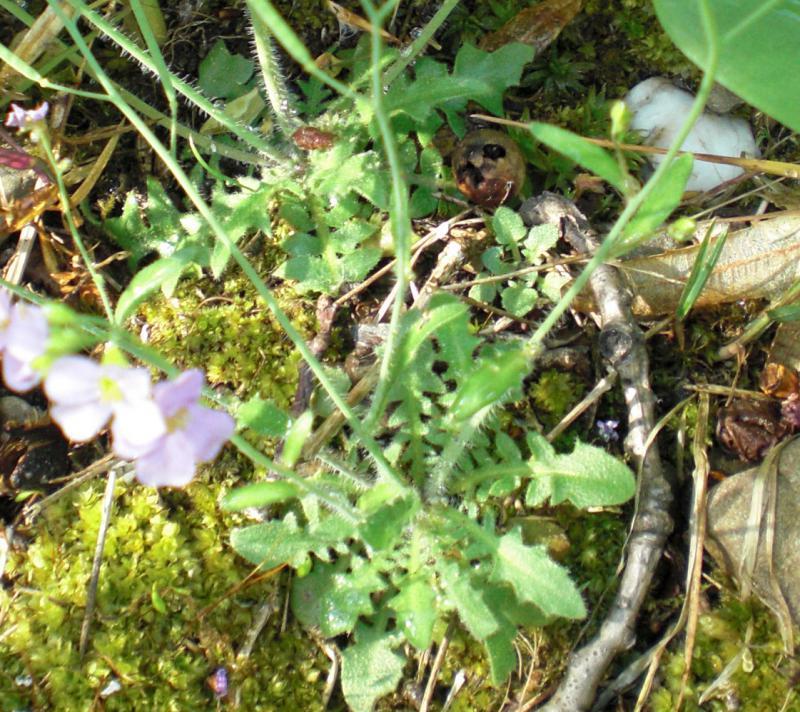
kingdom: Plantae
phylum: Tracheophyta
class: Magnoliopsida
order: Brassicales
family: Brassicaceae
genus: Arabidopsis
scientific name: Arabidopsis arenosa
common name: Sand rock-cress
